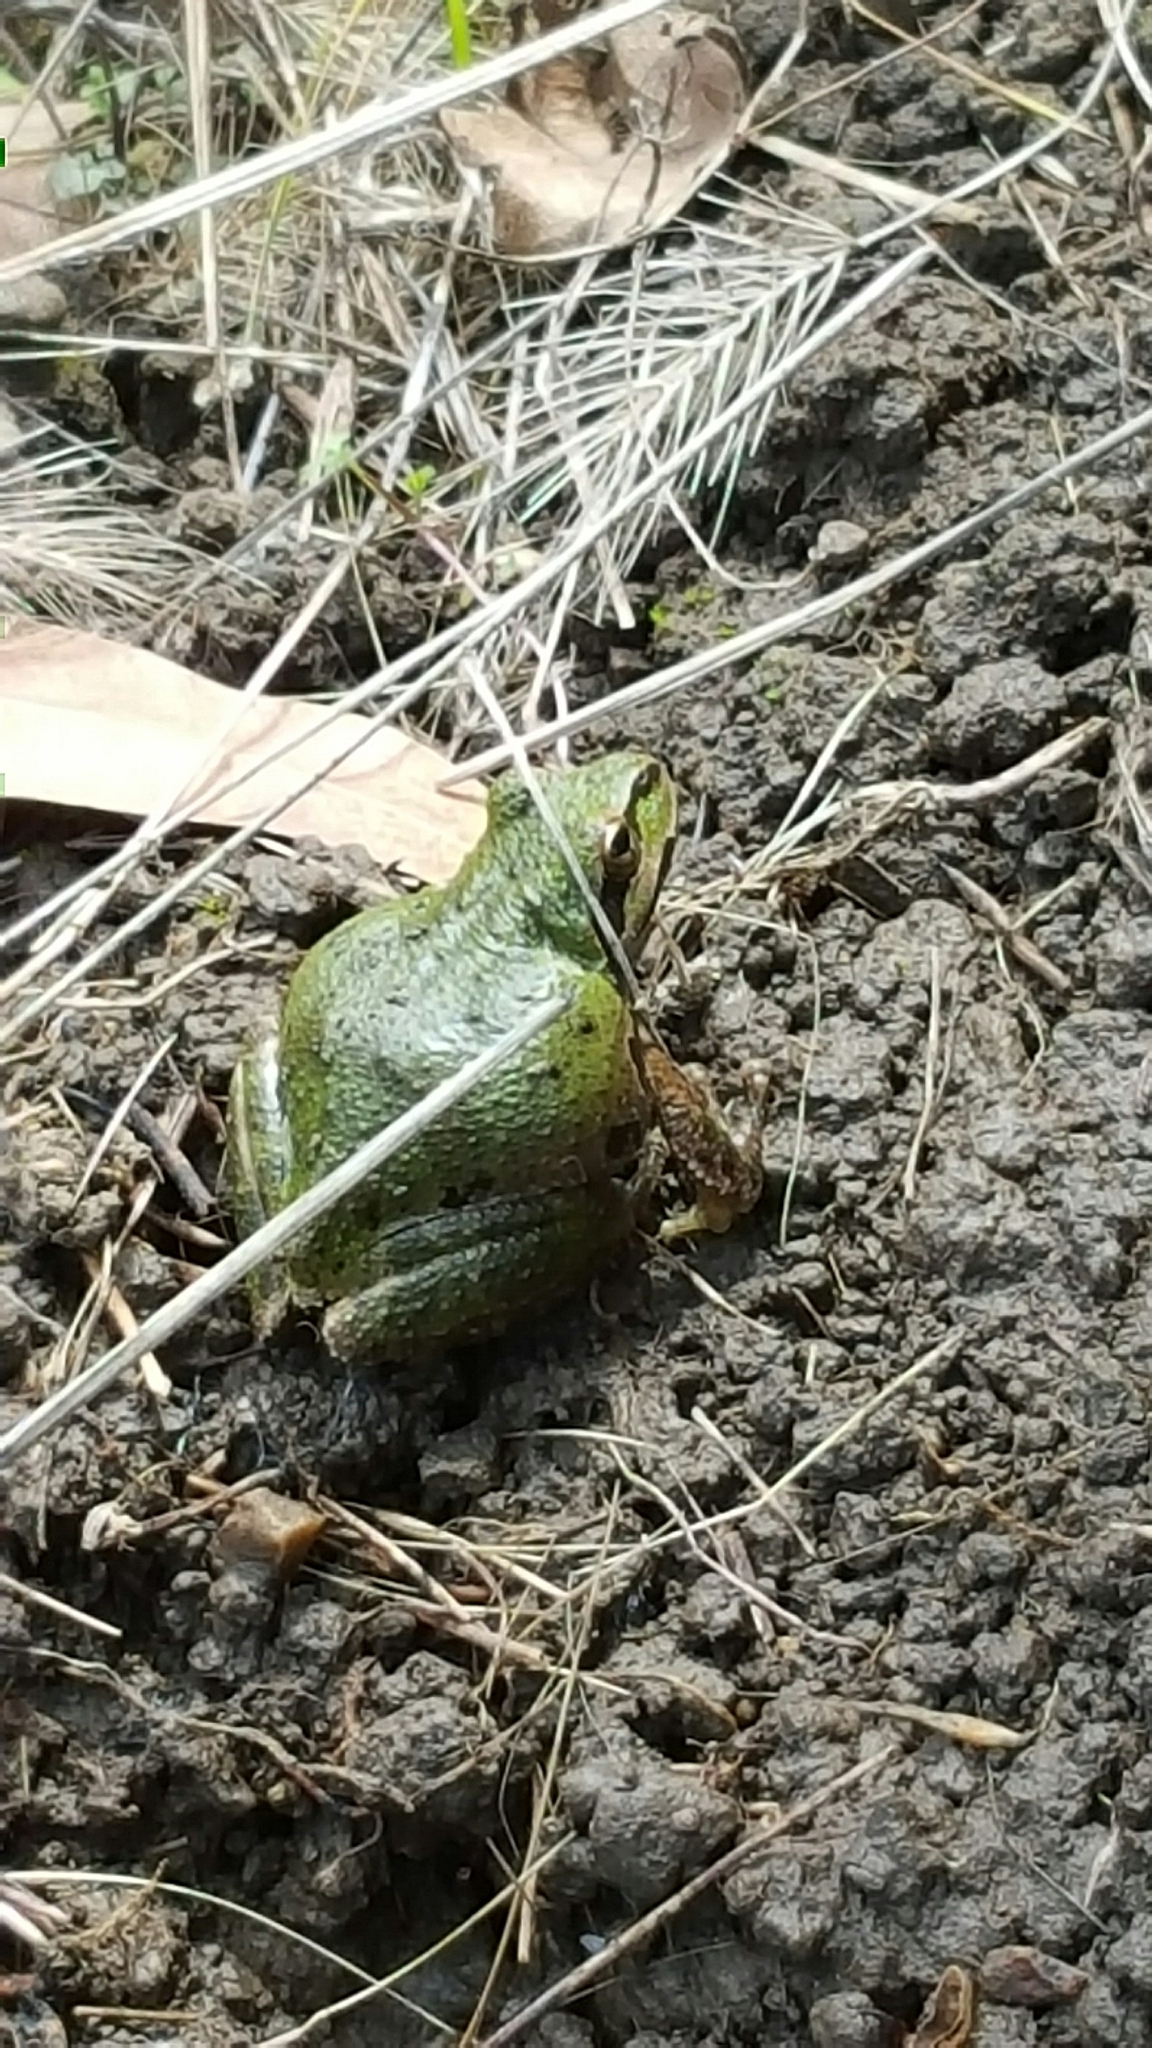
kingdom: Animalia
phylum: Chordata
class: Amphibia
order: Anura
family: Hylidae
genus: Pseudacris
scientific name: Pseudacris regilla
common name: Pacific chorus frog
